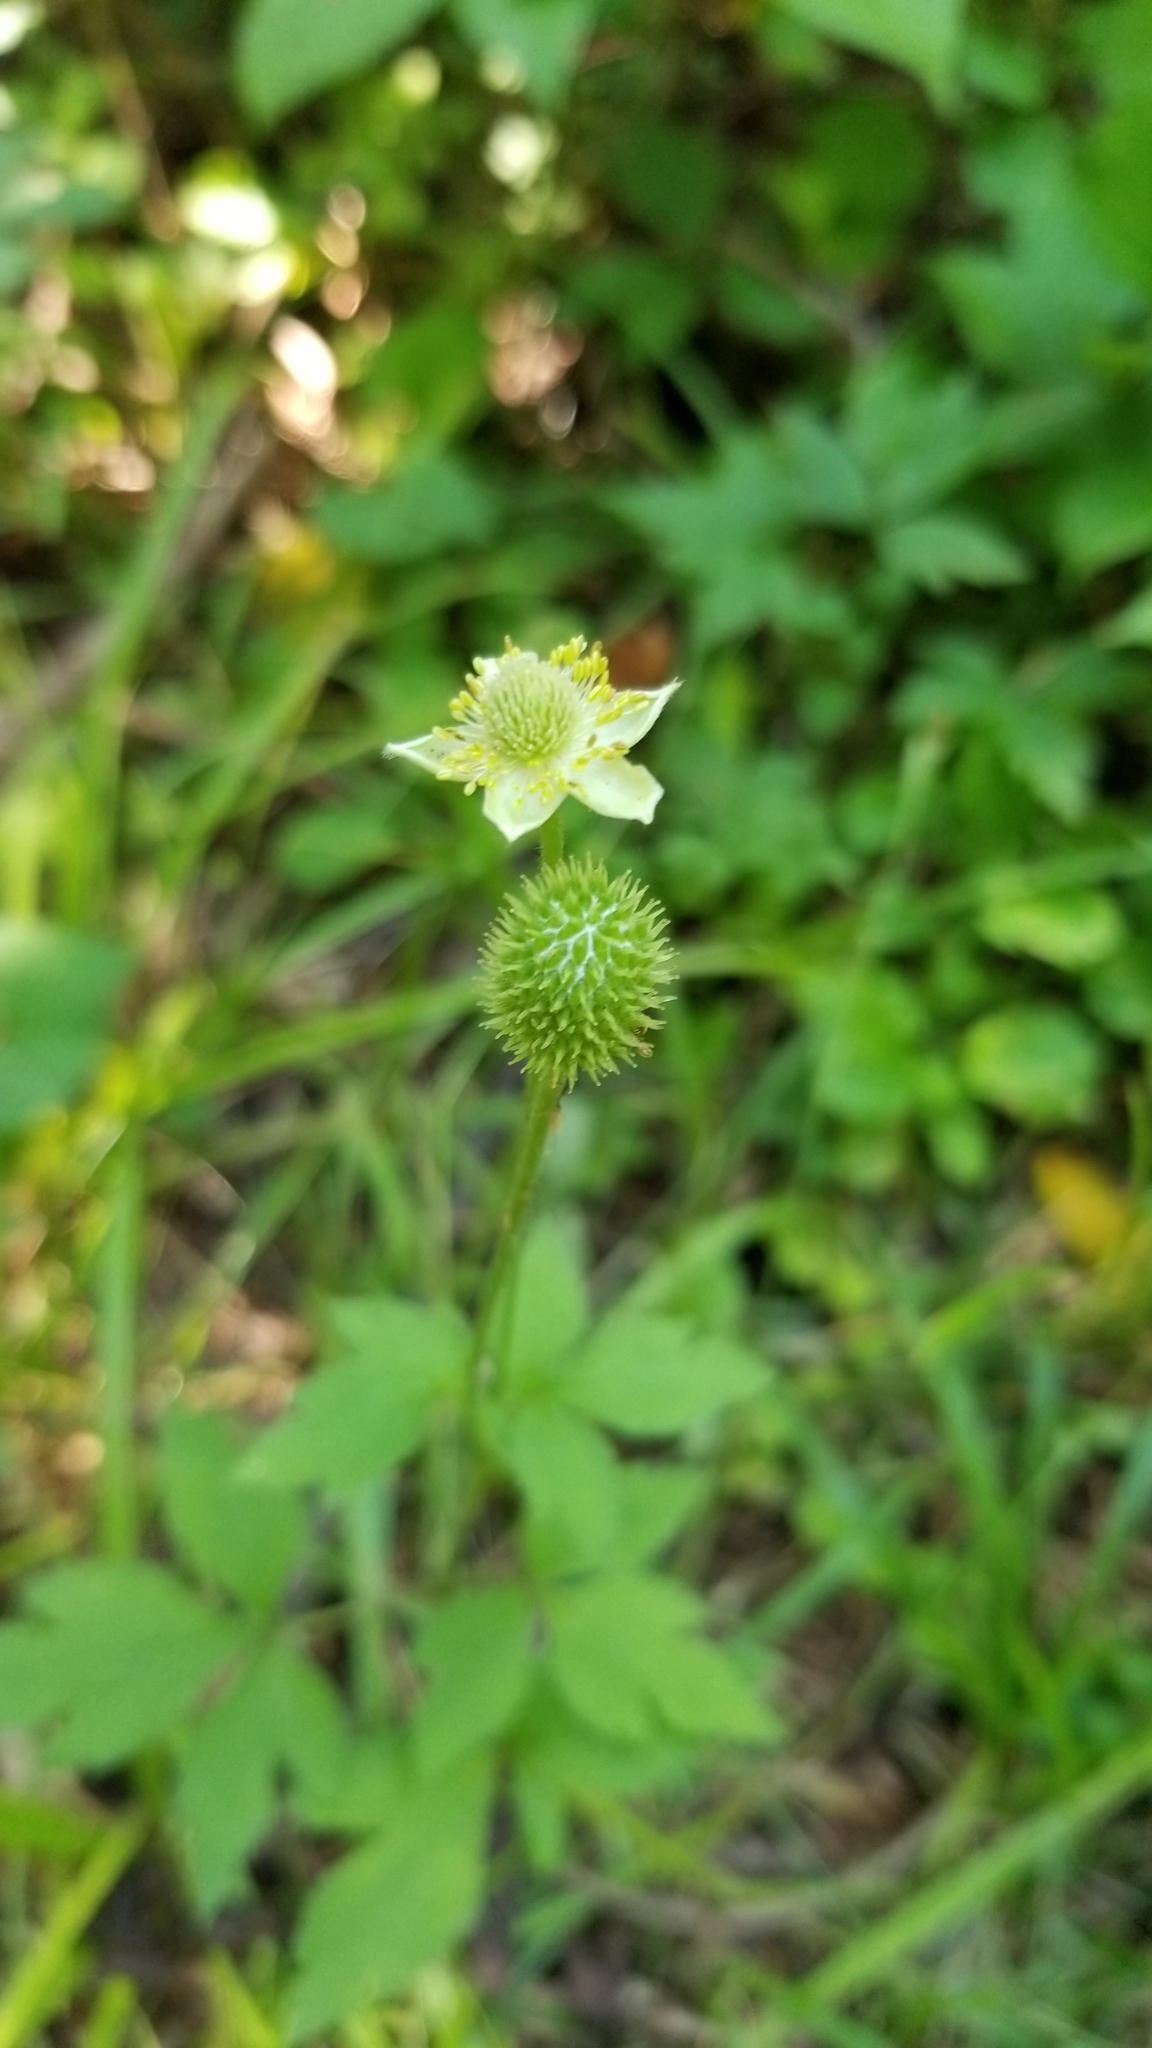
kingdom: Plantae
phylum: Tracheophyta
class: Magnoliopsida
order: Ranunculales
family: Ranunculaceae
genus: Anemone
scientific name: Anemone virginiana
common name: Tall anemone
